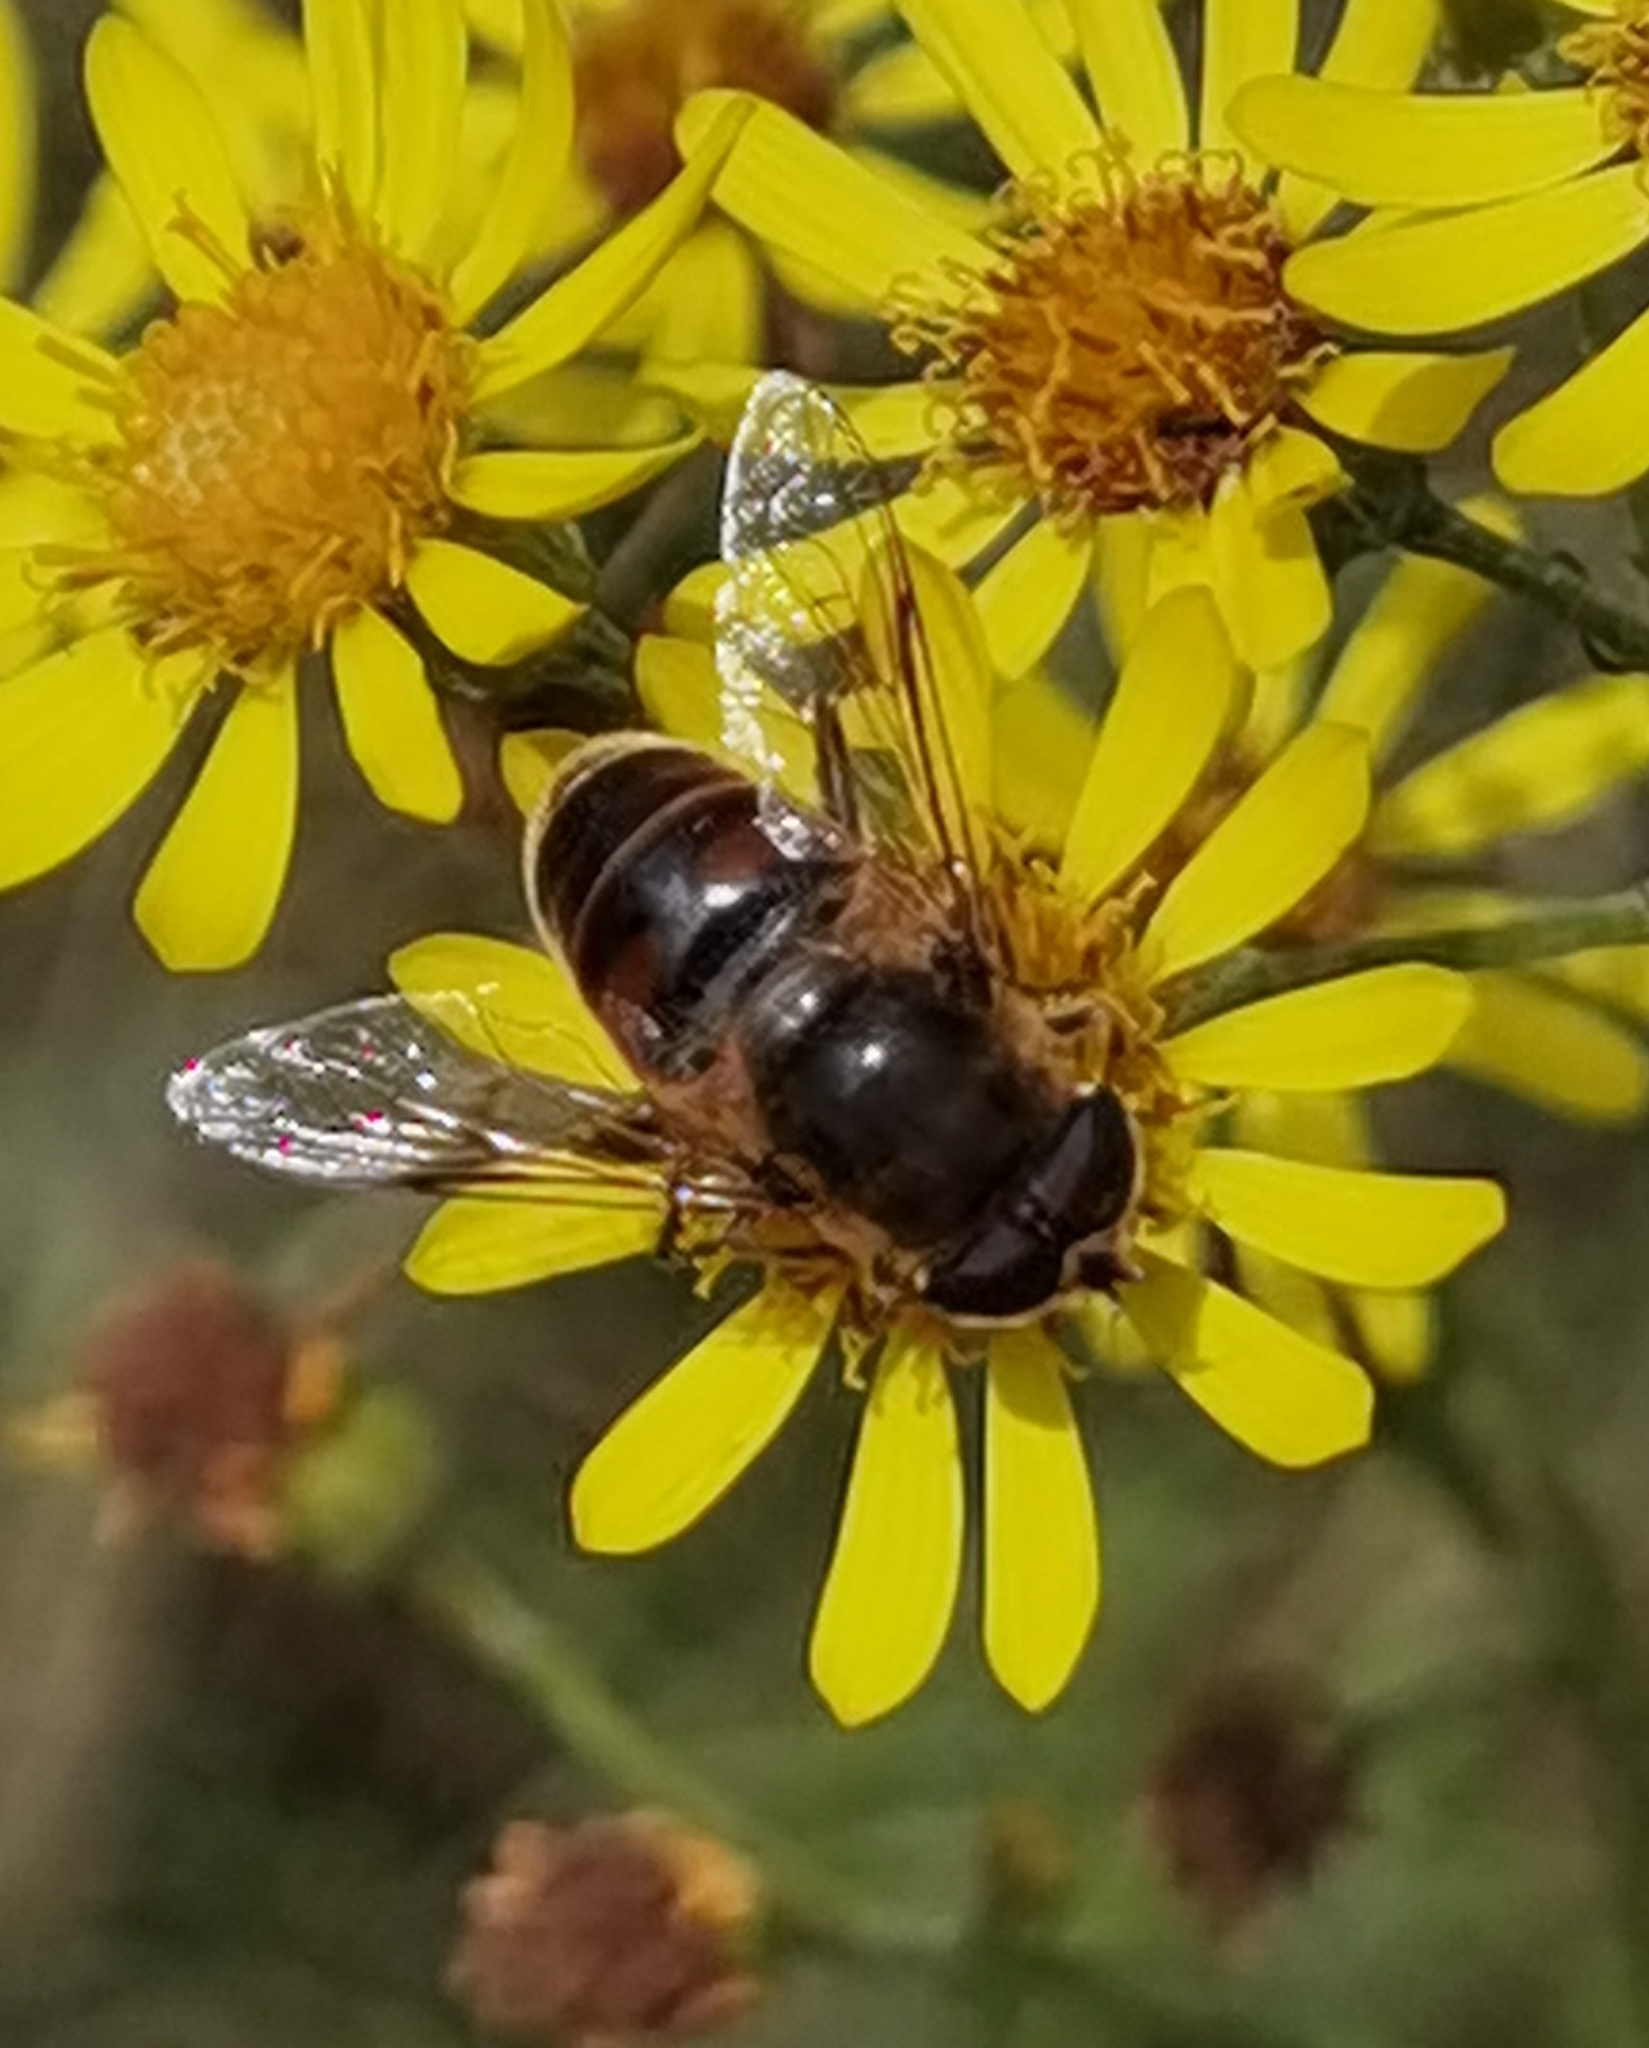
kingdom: Animalia
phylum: Arthropoda
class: Insecta
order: Diptera
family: Syrphidae
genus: Eristalis
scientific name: Eristalis tenax
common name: Drone fly
